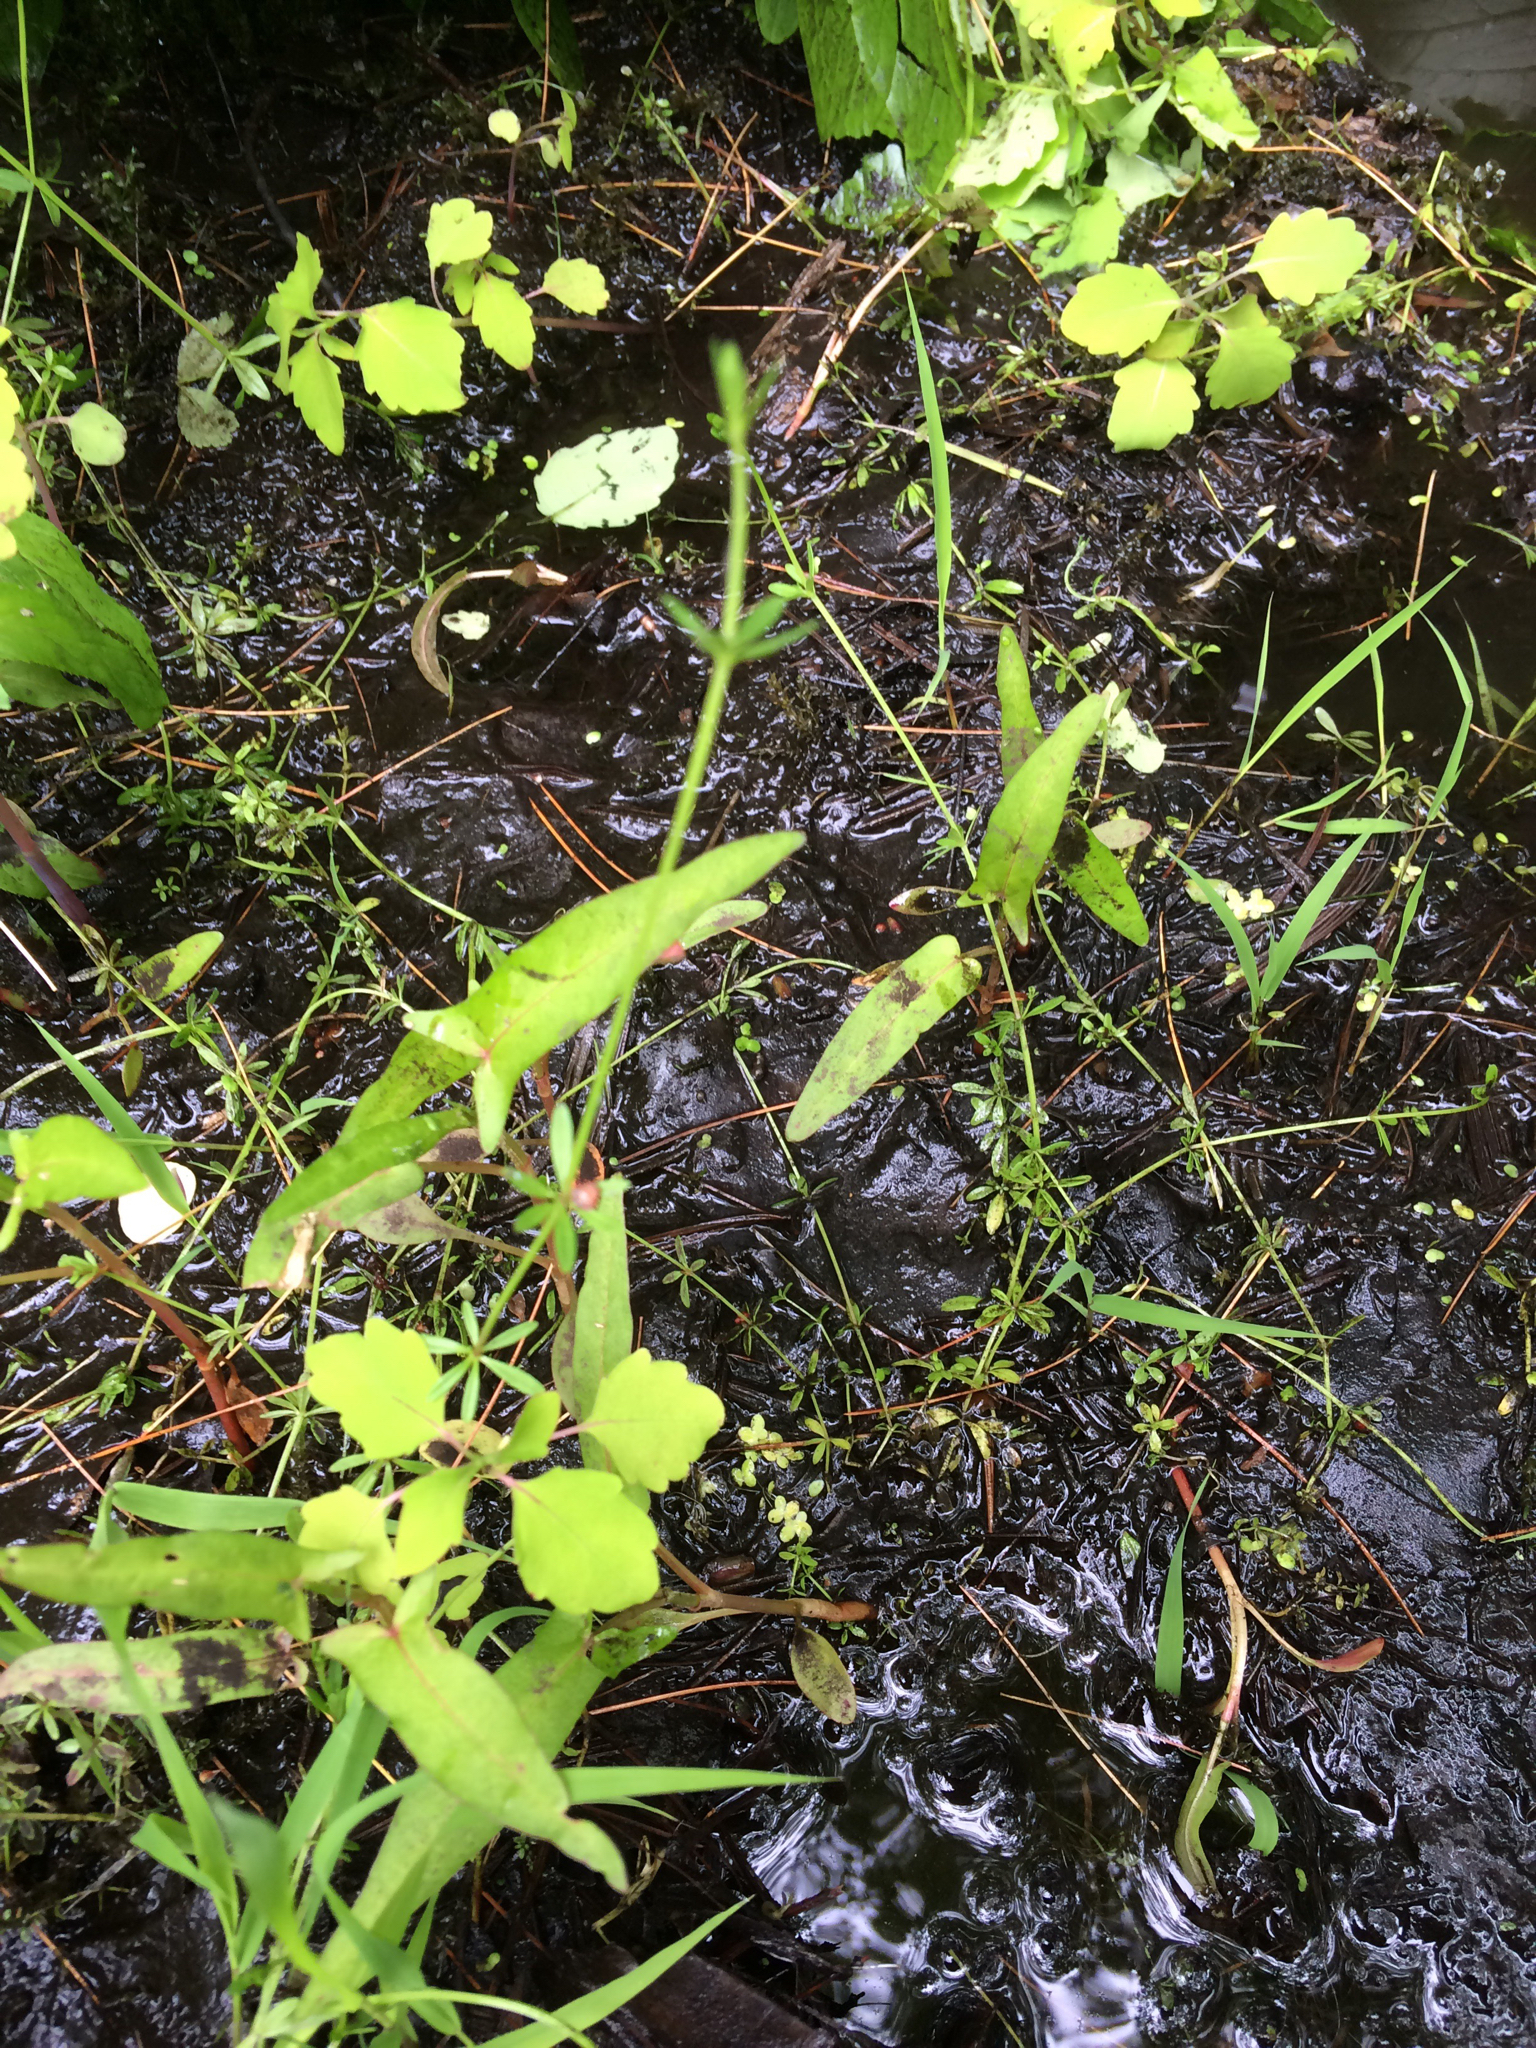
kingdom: Plantae
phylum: Tracheophyta
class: Magnoliopsida
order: Gentianales
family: Rubiaceae
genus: Galium
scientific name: Galium palustre
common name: Common marsh-bedstraw
